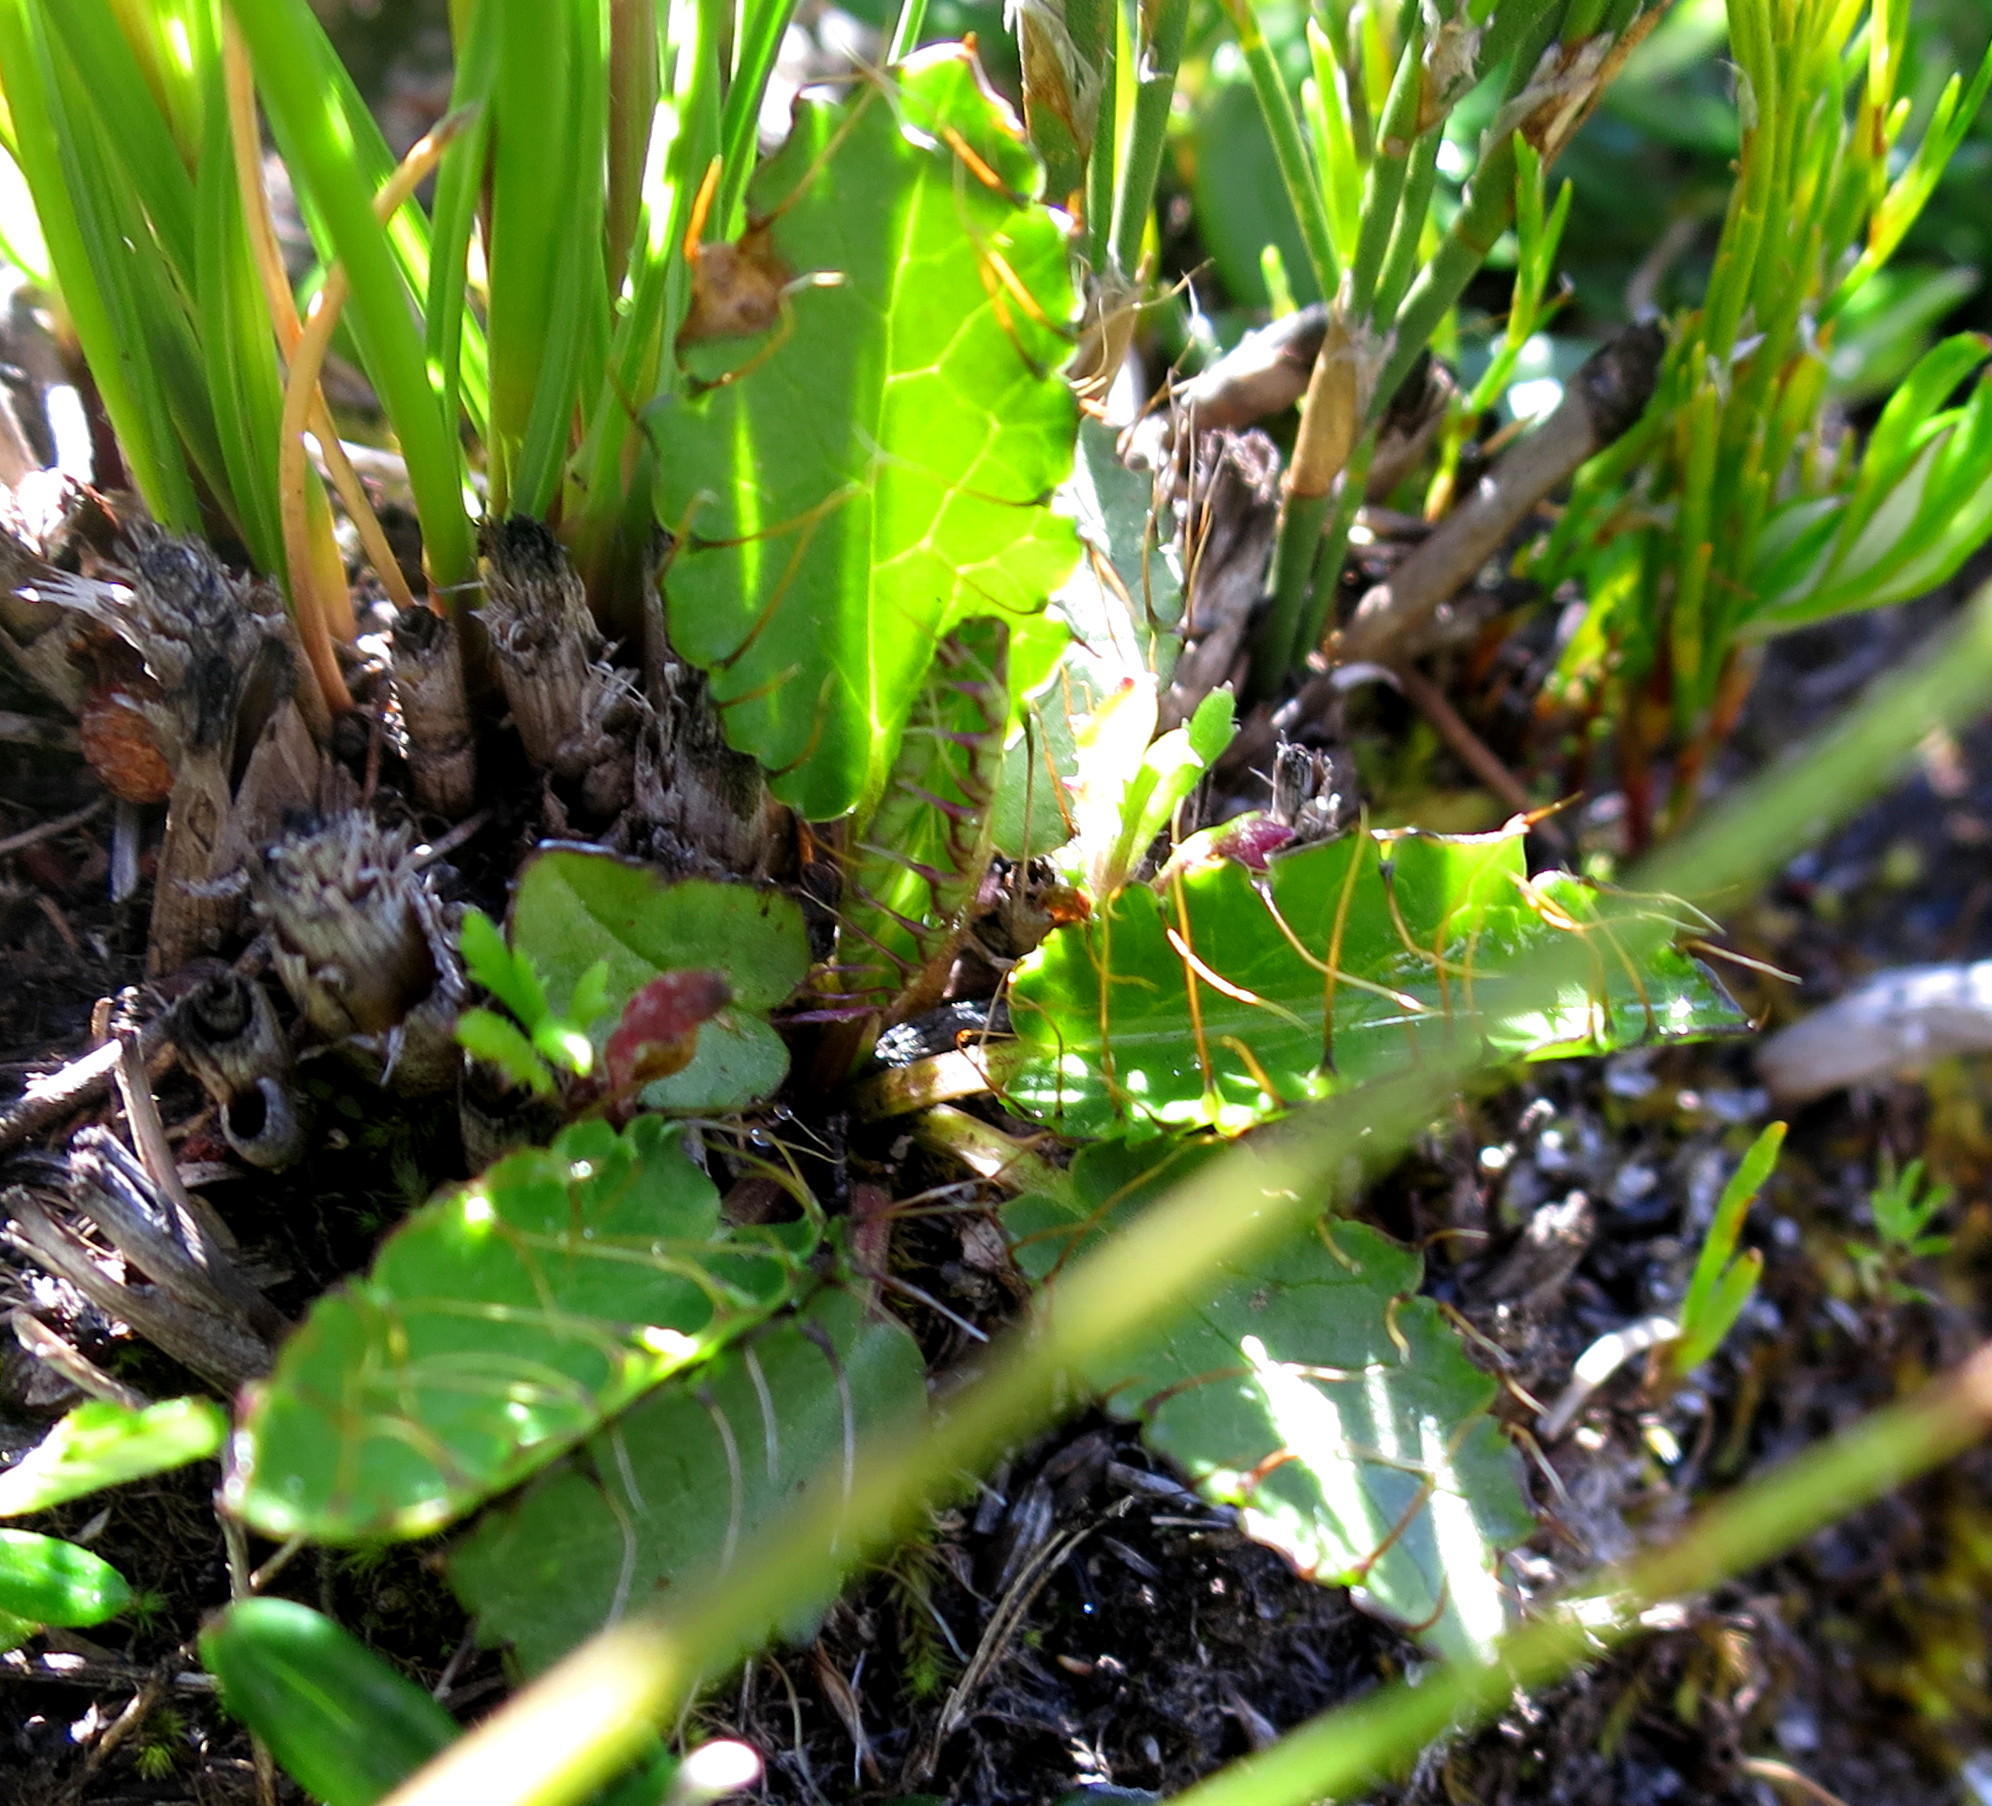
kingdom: Plantae
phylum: Tracheophyta
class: Magnoliopsida
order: Apiales
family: Apiaceae
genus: Alepidea
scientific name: Alepidea delicatula
